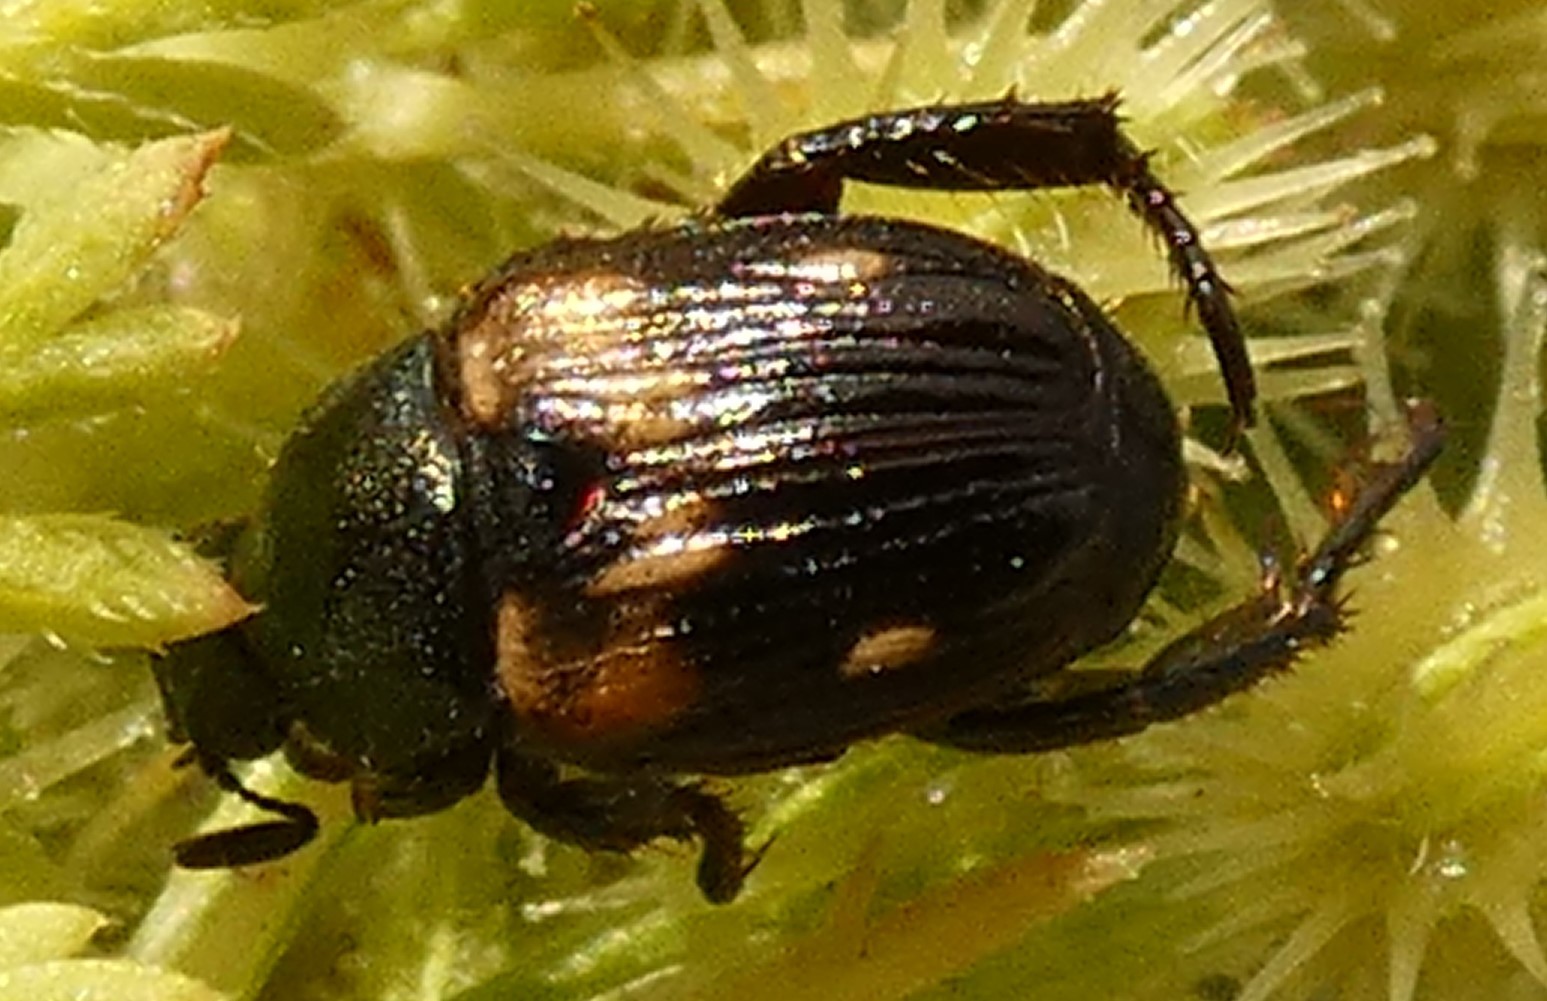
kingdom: Animalia
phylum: Arthropoda
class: Insecta
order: Coleoptera
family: Scarabaeidae
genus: Strigoderma
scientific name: Strigoderma pygmaea
